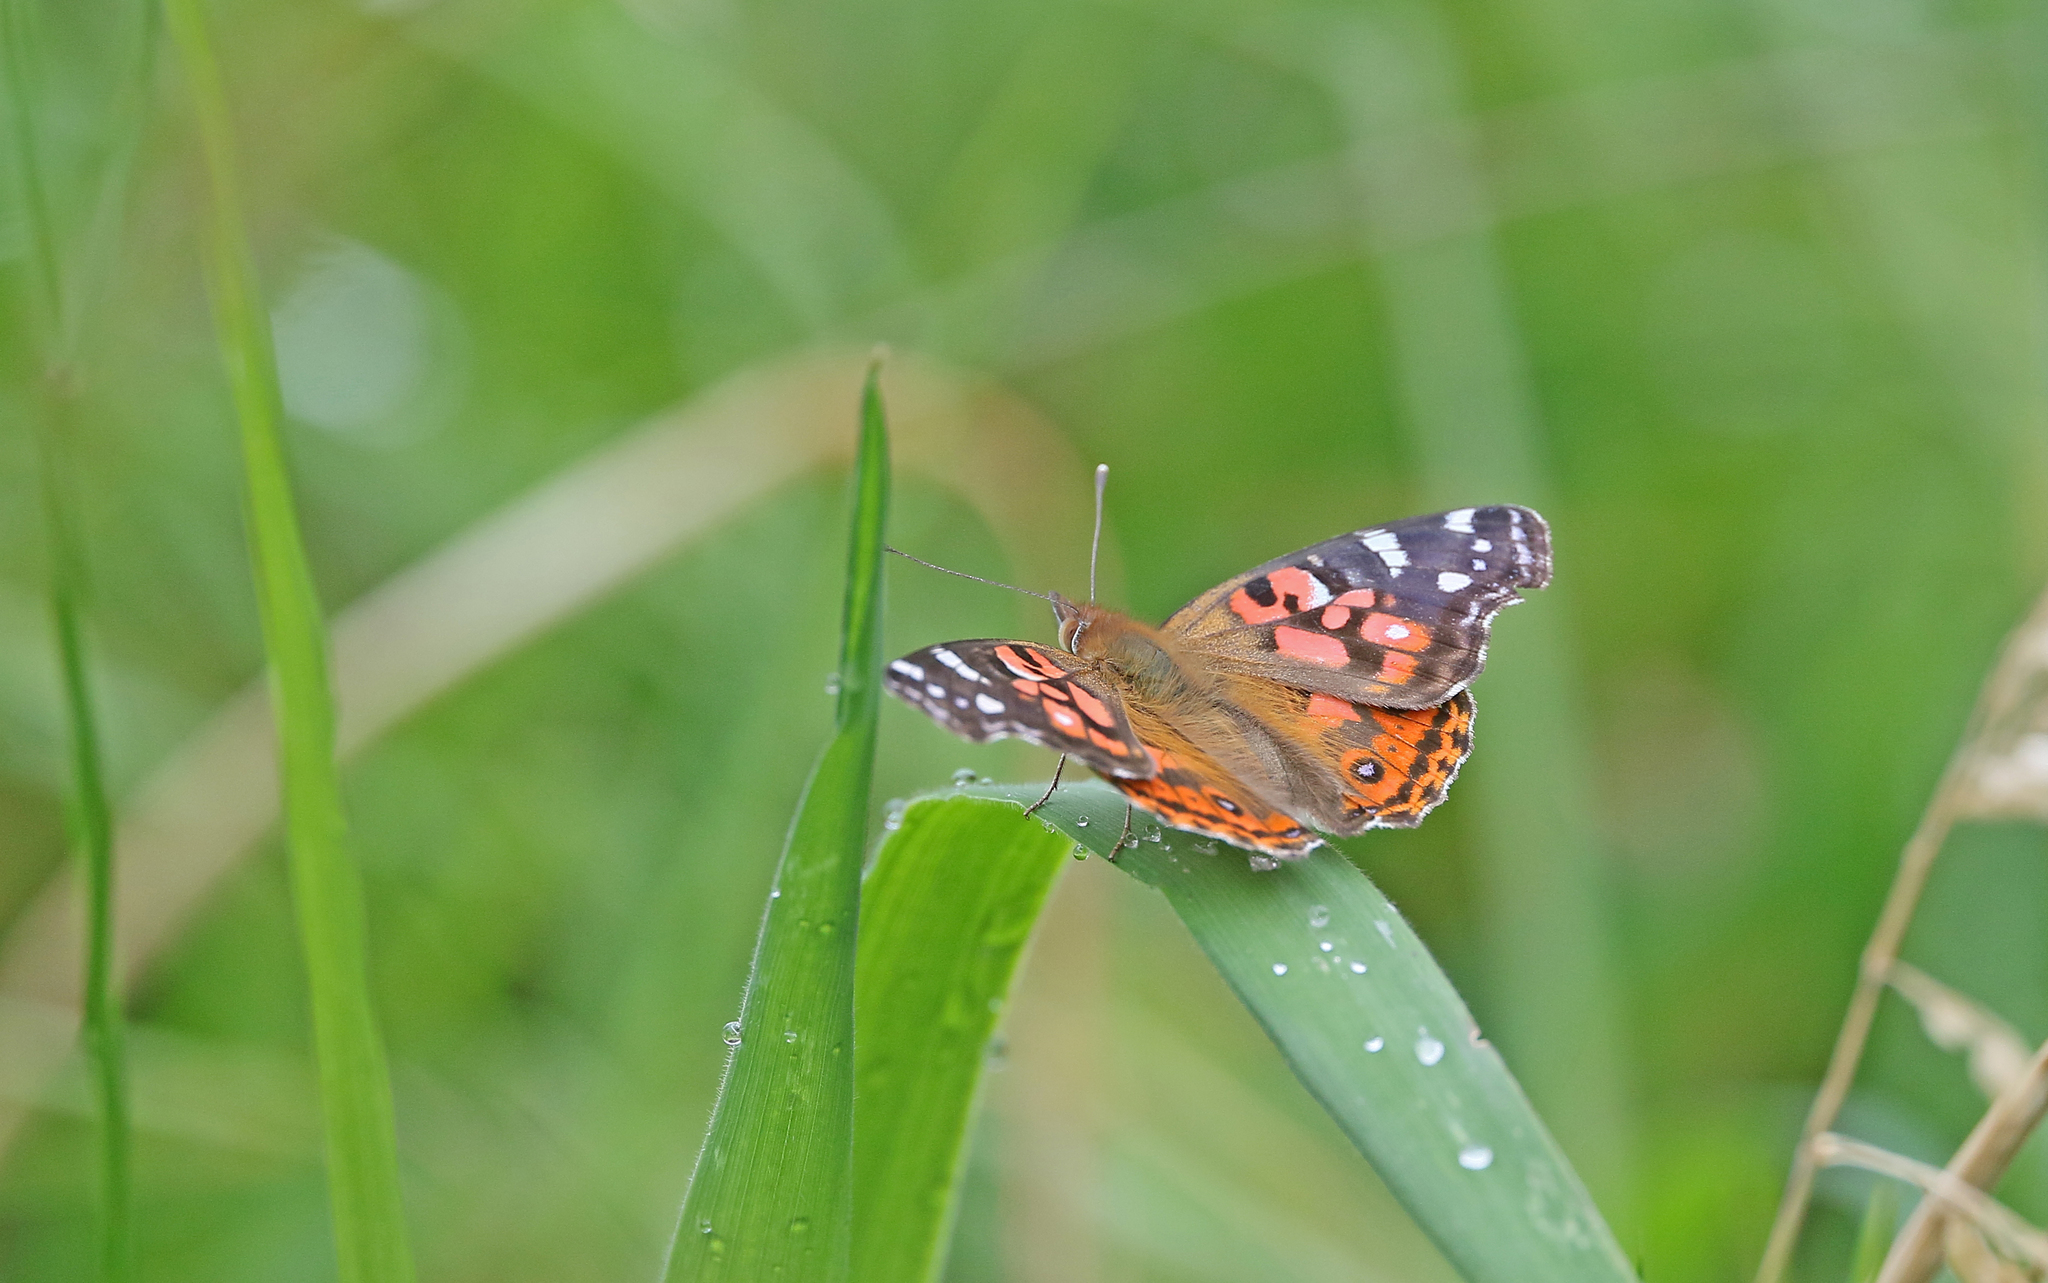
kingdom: Animalia
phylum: Arthropoda
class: Insecta
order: Lepidoptera
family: Nymphalidae
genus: Vanessa
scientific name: Vanessa braziliensis
